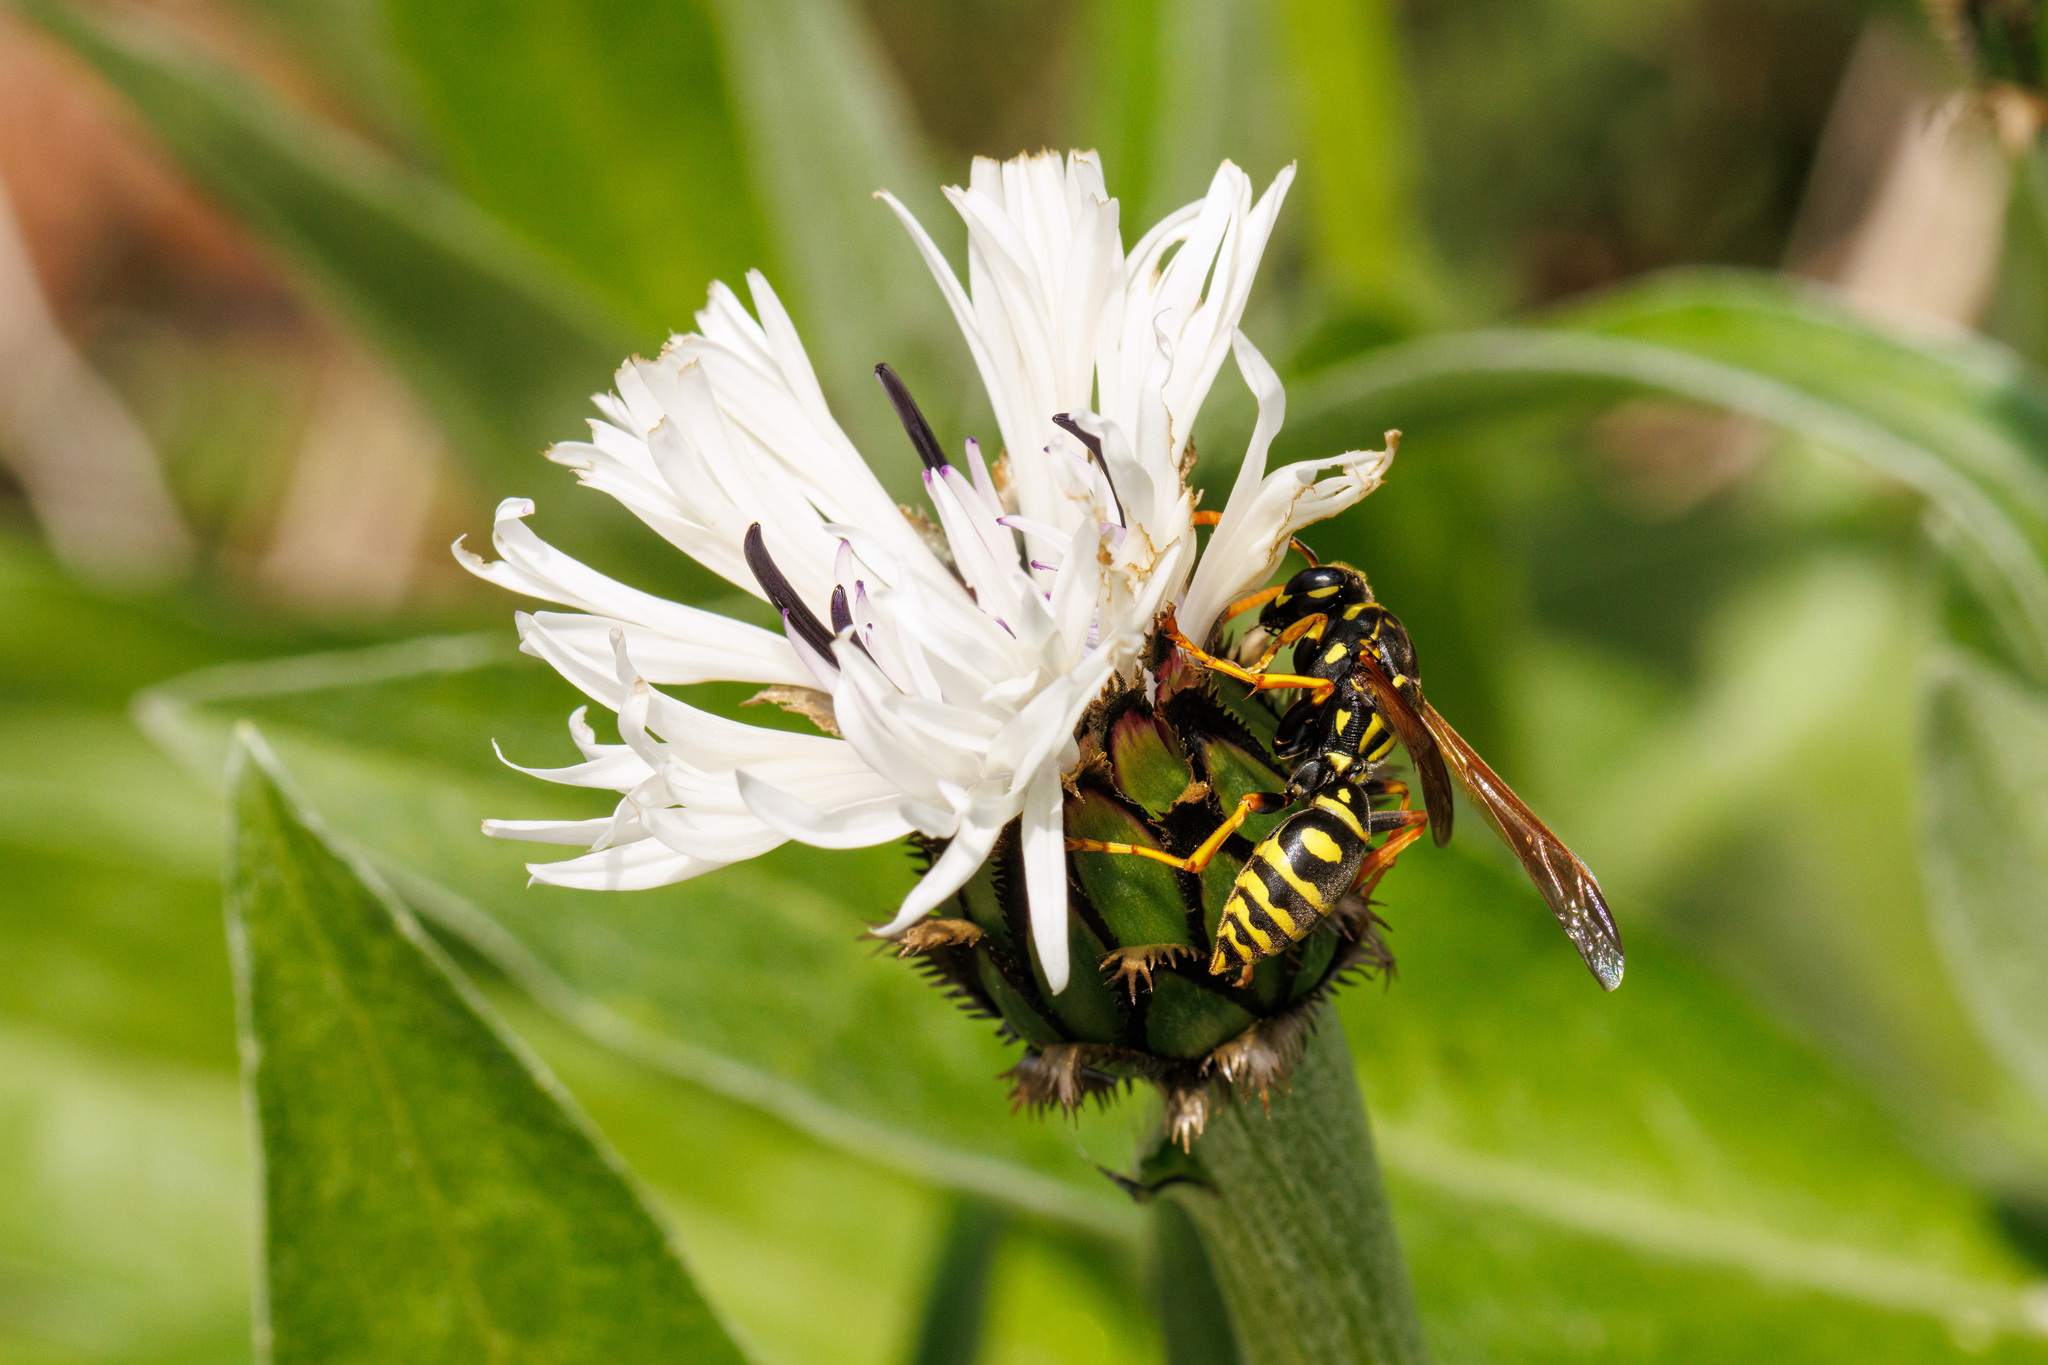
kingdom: Animalia
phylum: Arthropoda
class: Insecta
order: Hymenoptera
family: Eumenidae
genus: Polistes
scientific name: Polistes dominula
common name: Paper wasp
